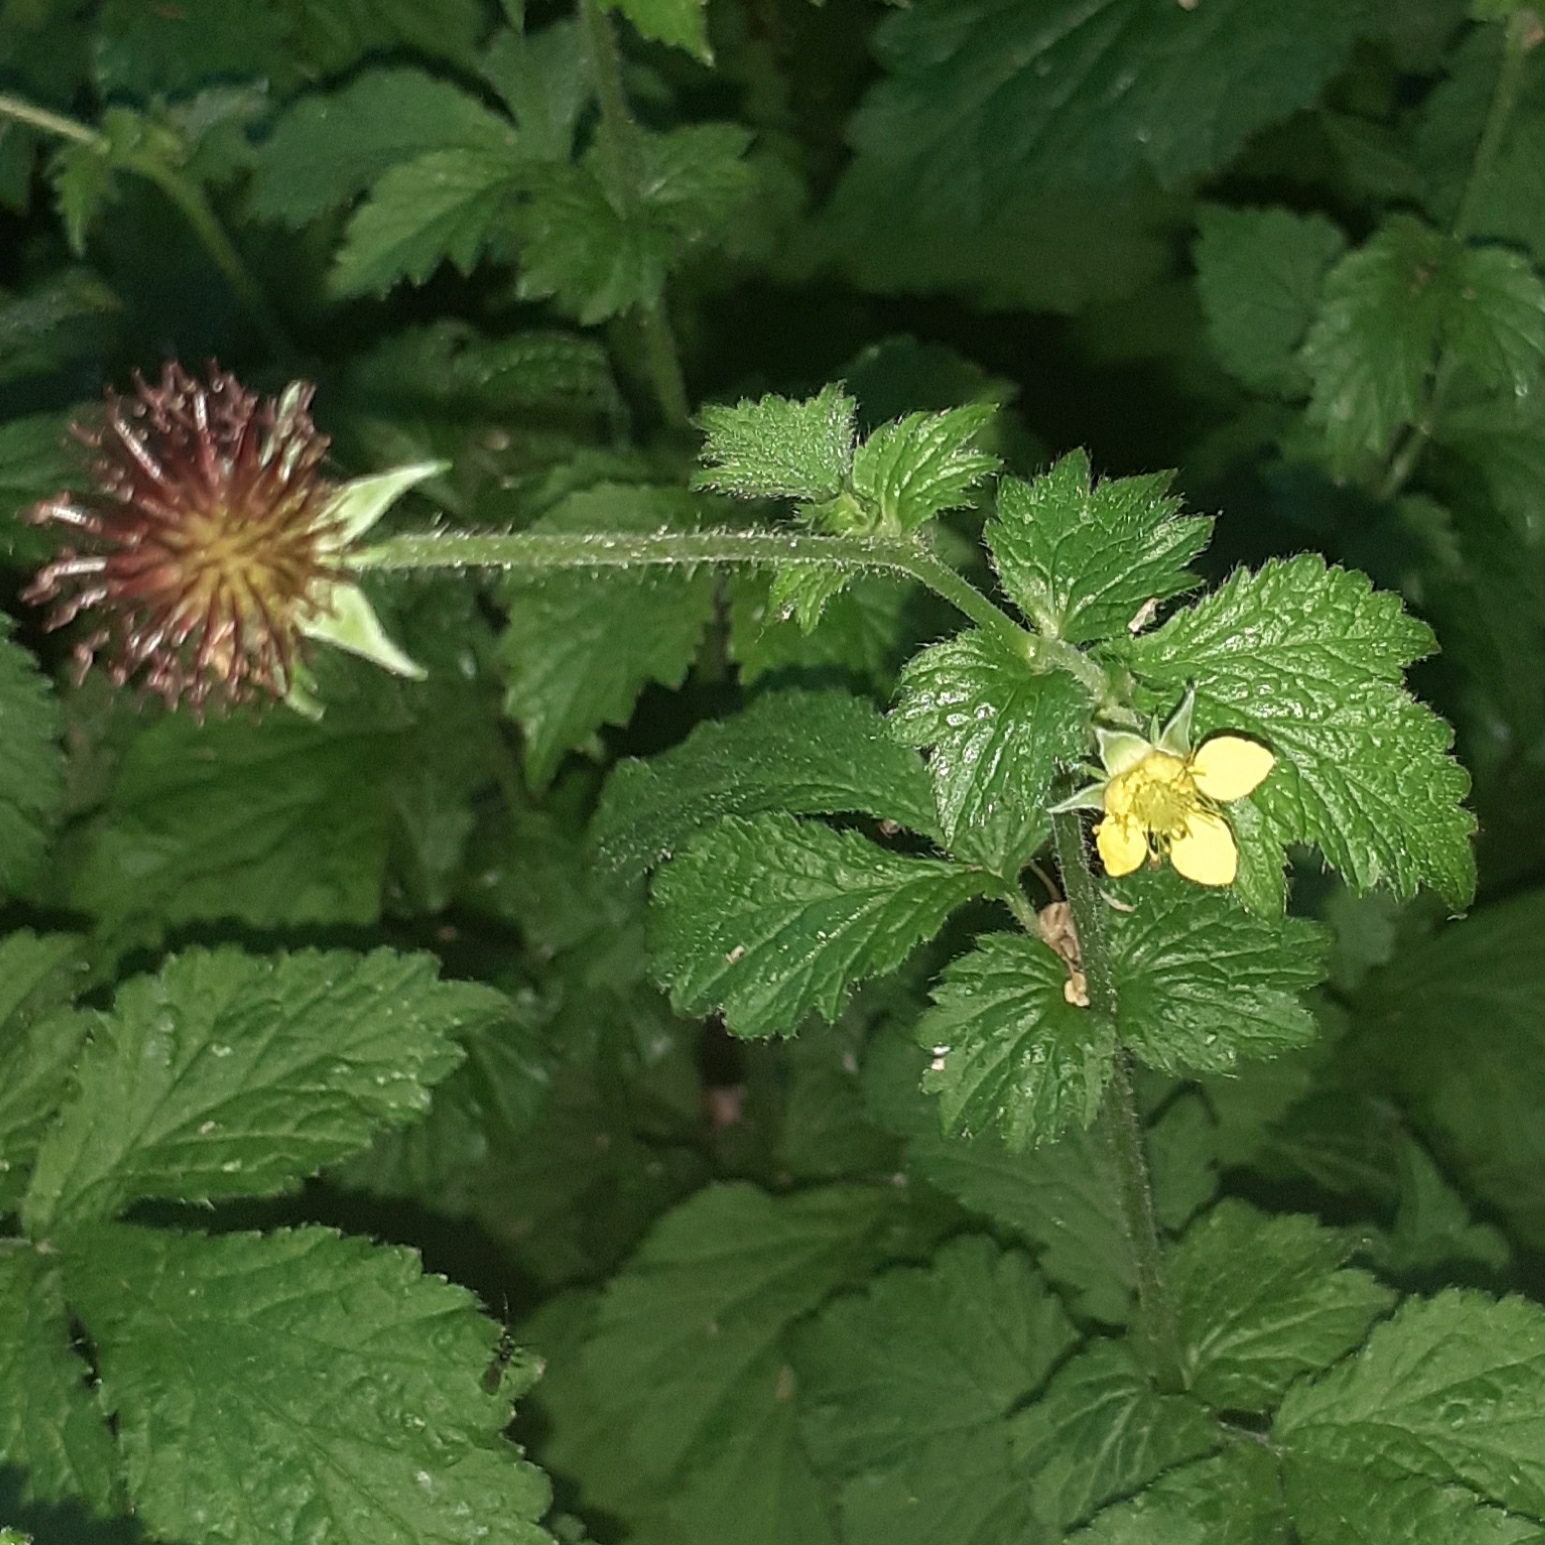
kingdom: Plantae
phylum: Tracheophyta
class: Magnoliopsida
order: Rosales
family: Rosaceae
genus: Geum
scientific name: Geum urbanum
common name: Wood avens
